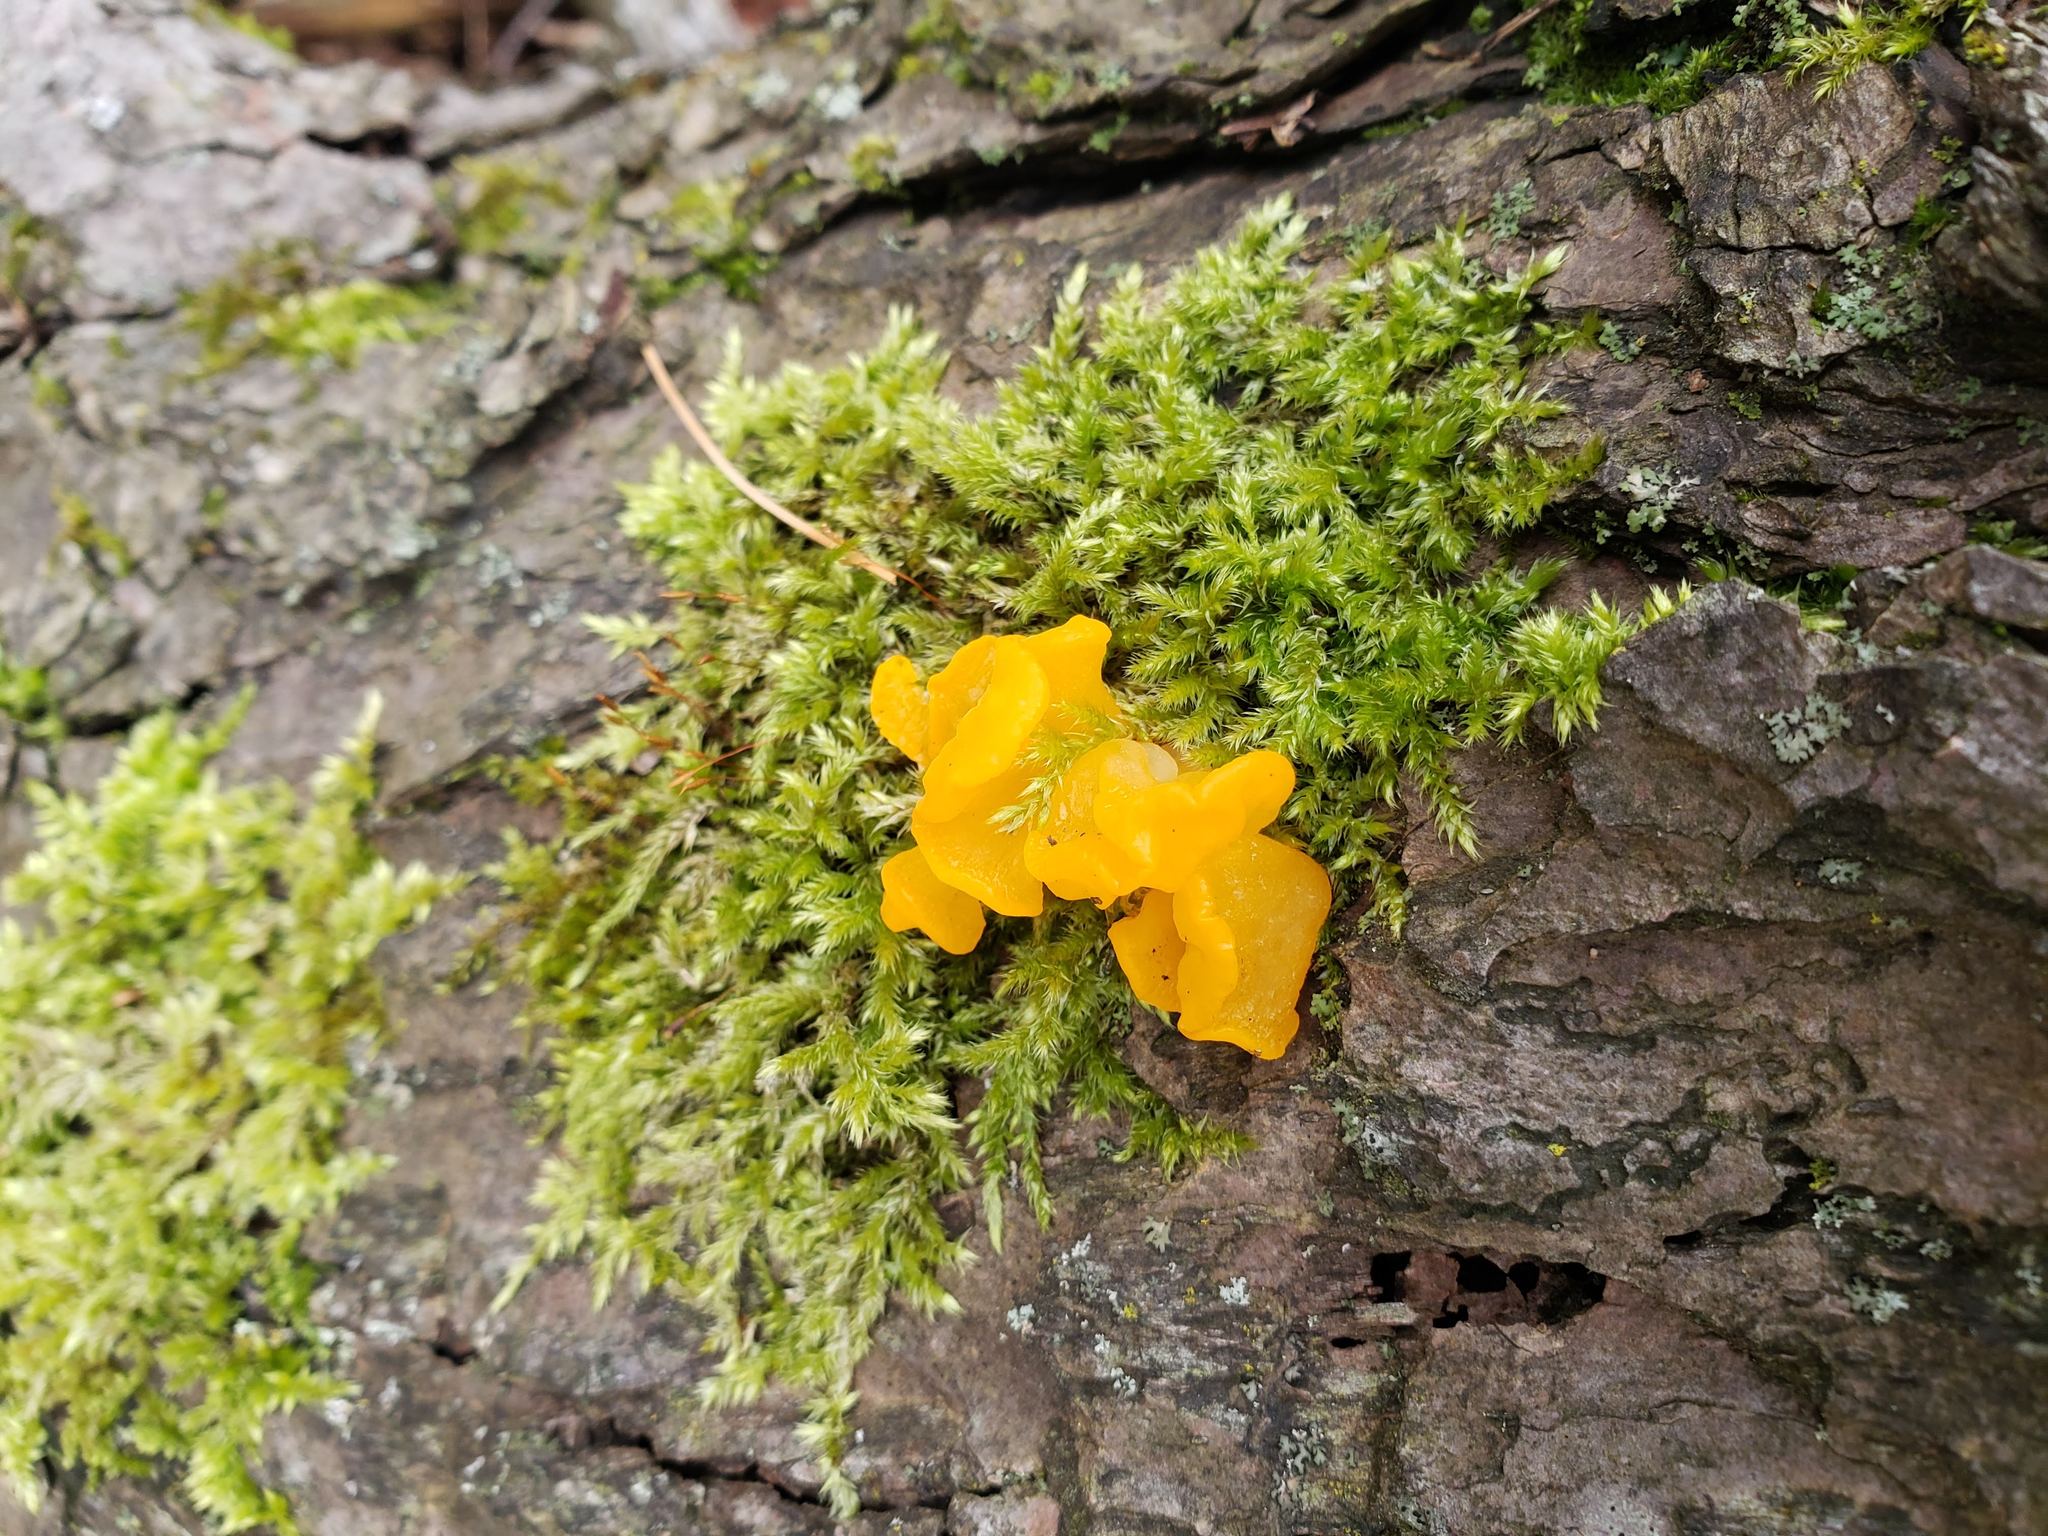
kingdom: Fungi
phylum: Basidiomycota
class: Dacrymycetes
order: Dacrymycetales
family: Dacrymycetaceae
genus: Dacrymyces
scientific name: Dacrymyces chrysospermus
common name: Orange jelly spot
